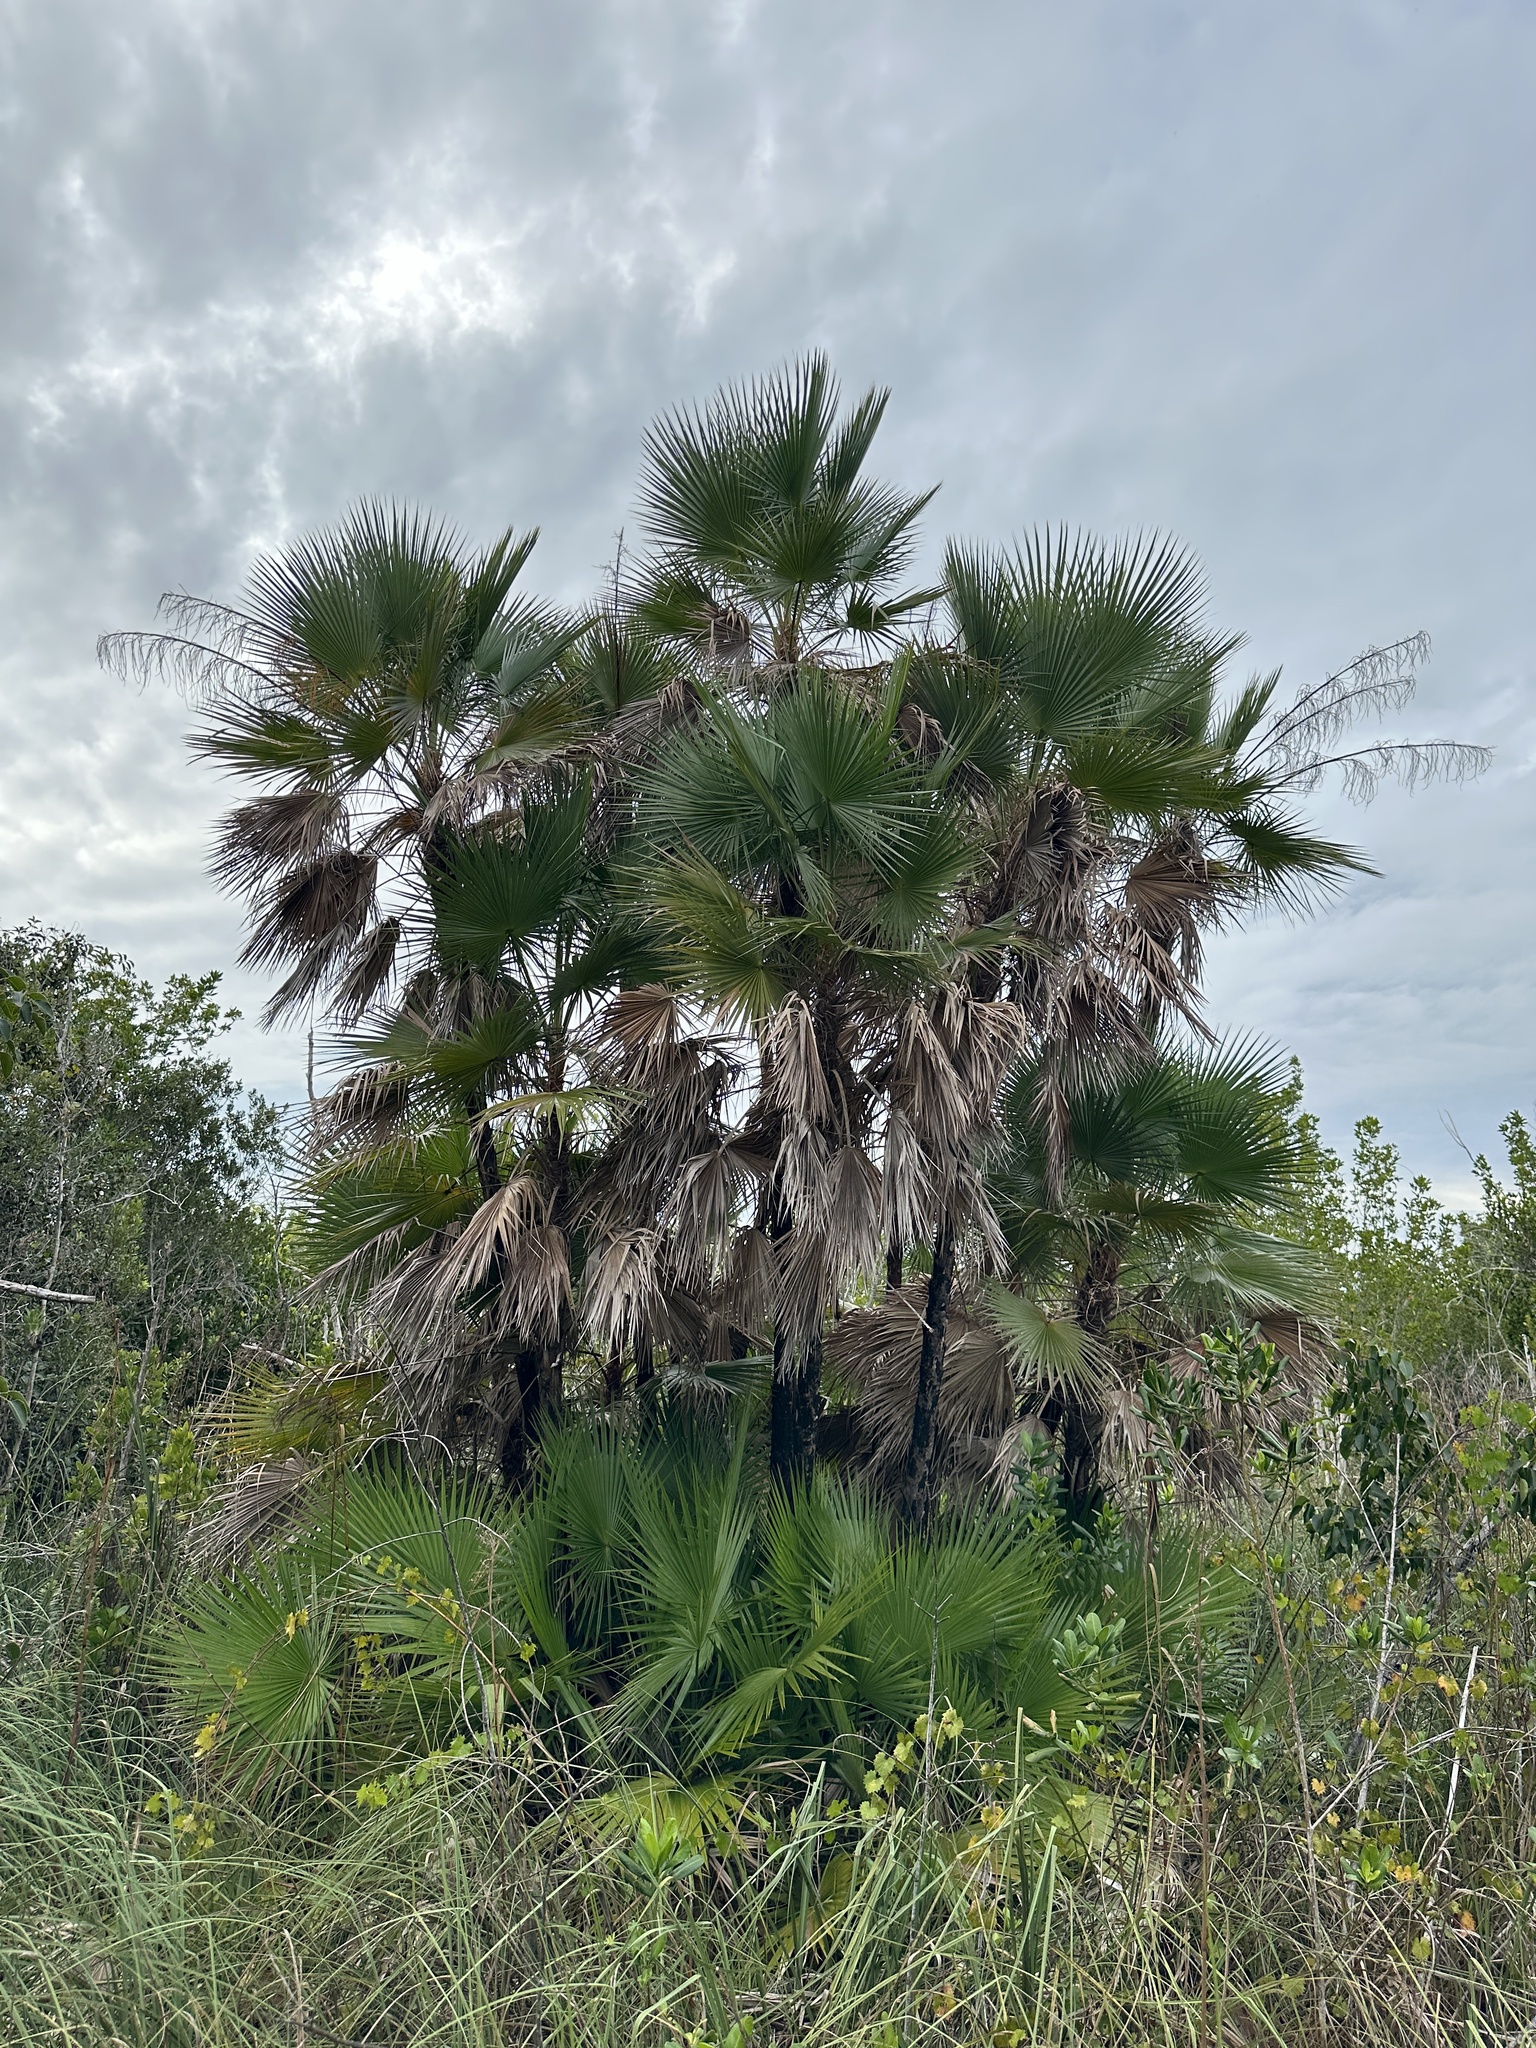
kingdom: Plantae
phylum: Tracheophyta
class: Liliopsida
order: Arecales
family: Arecaceae
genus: Acoelorraphe
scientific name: Acoelorraphe wrightii
